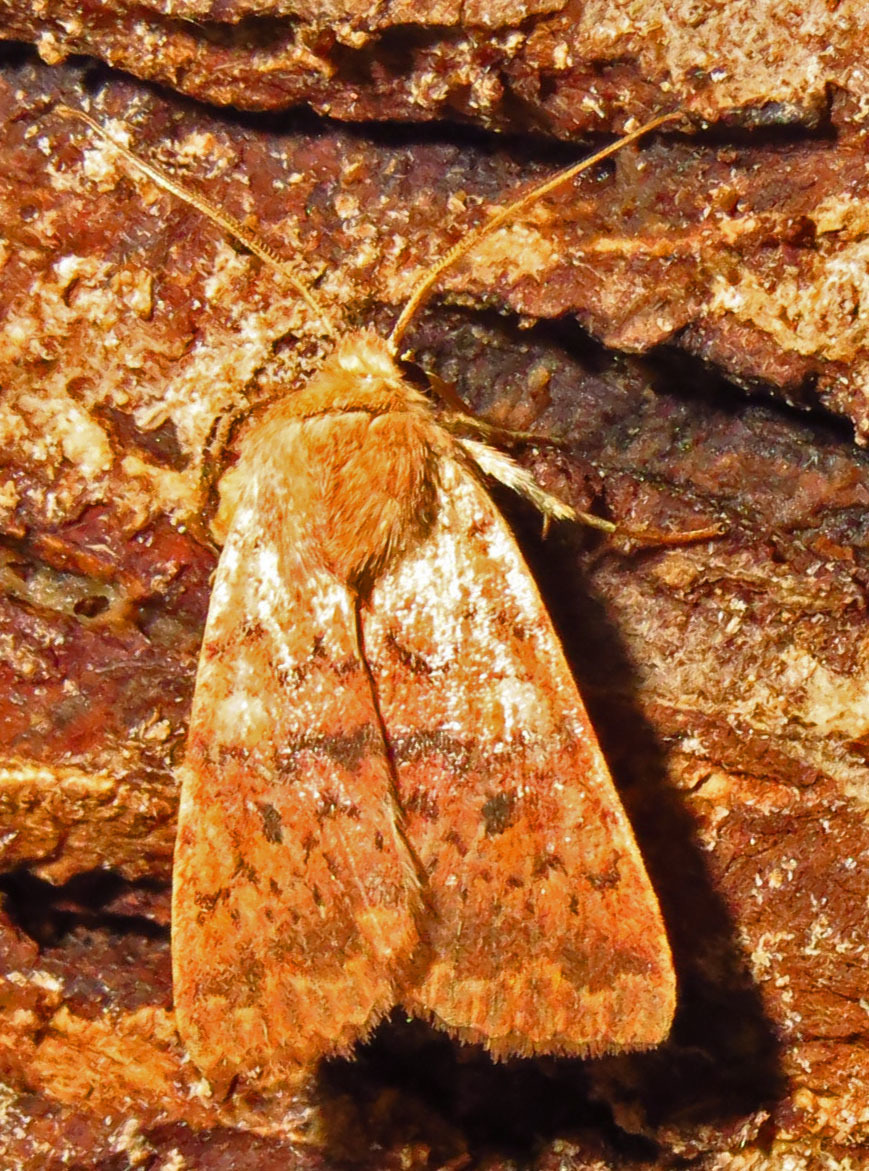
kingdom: Animalia
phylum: Arthropoda
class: Insecta
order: Lepidoptera
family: Noctuidae
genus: Agrochola
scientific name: Agrochola bicolorago
